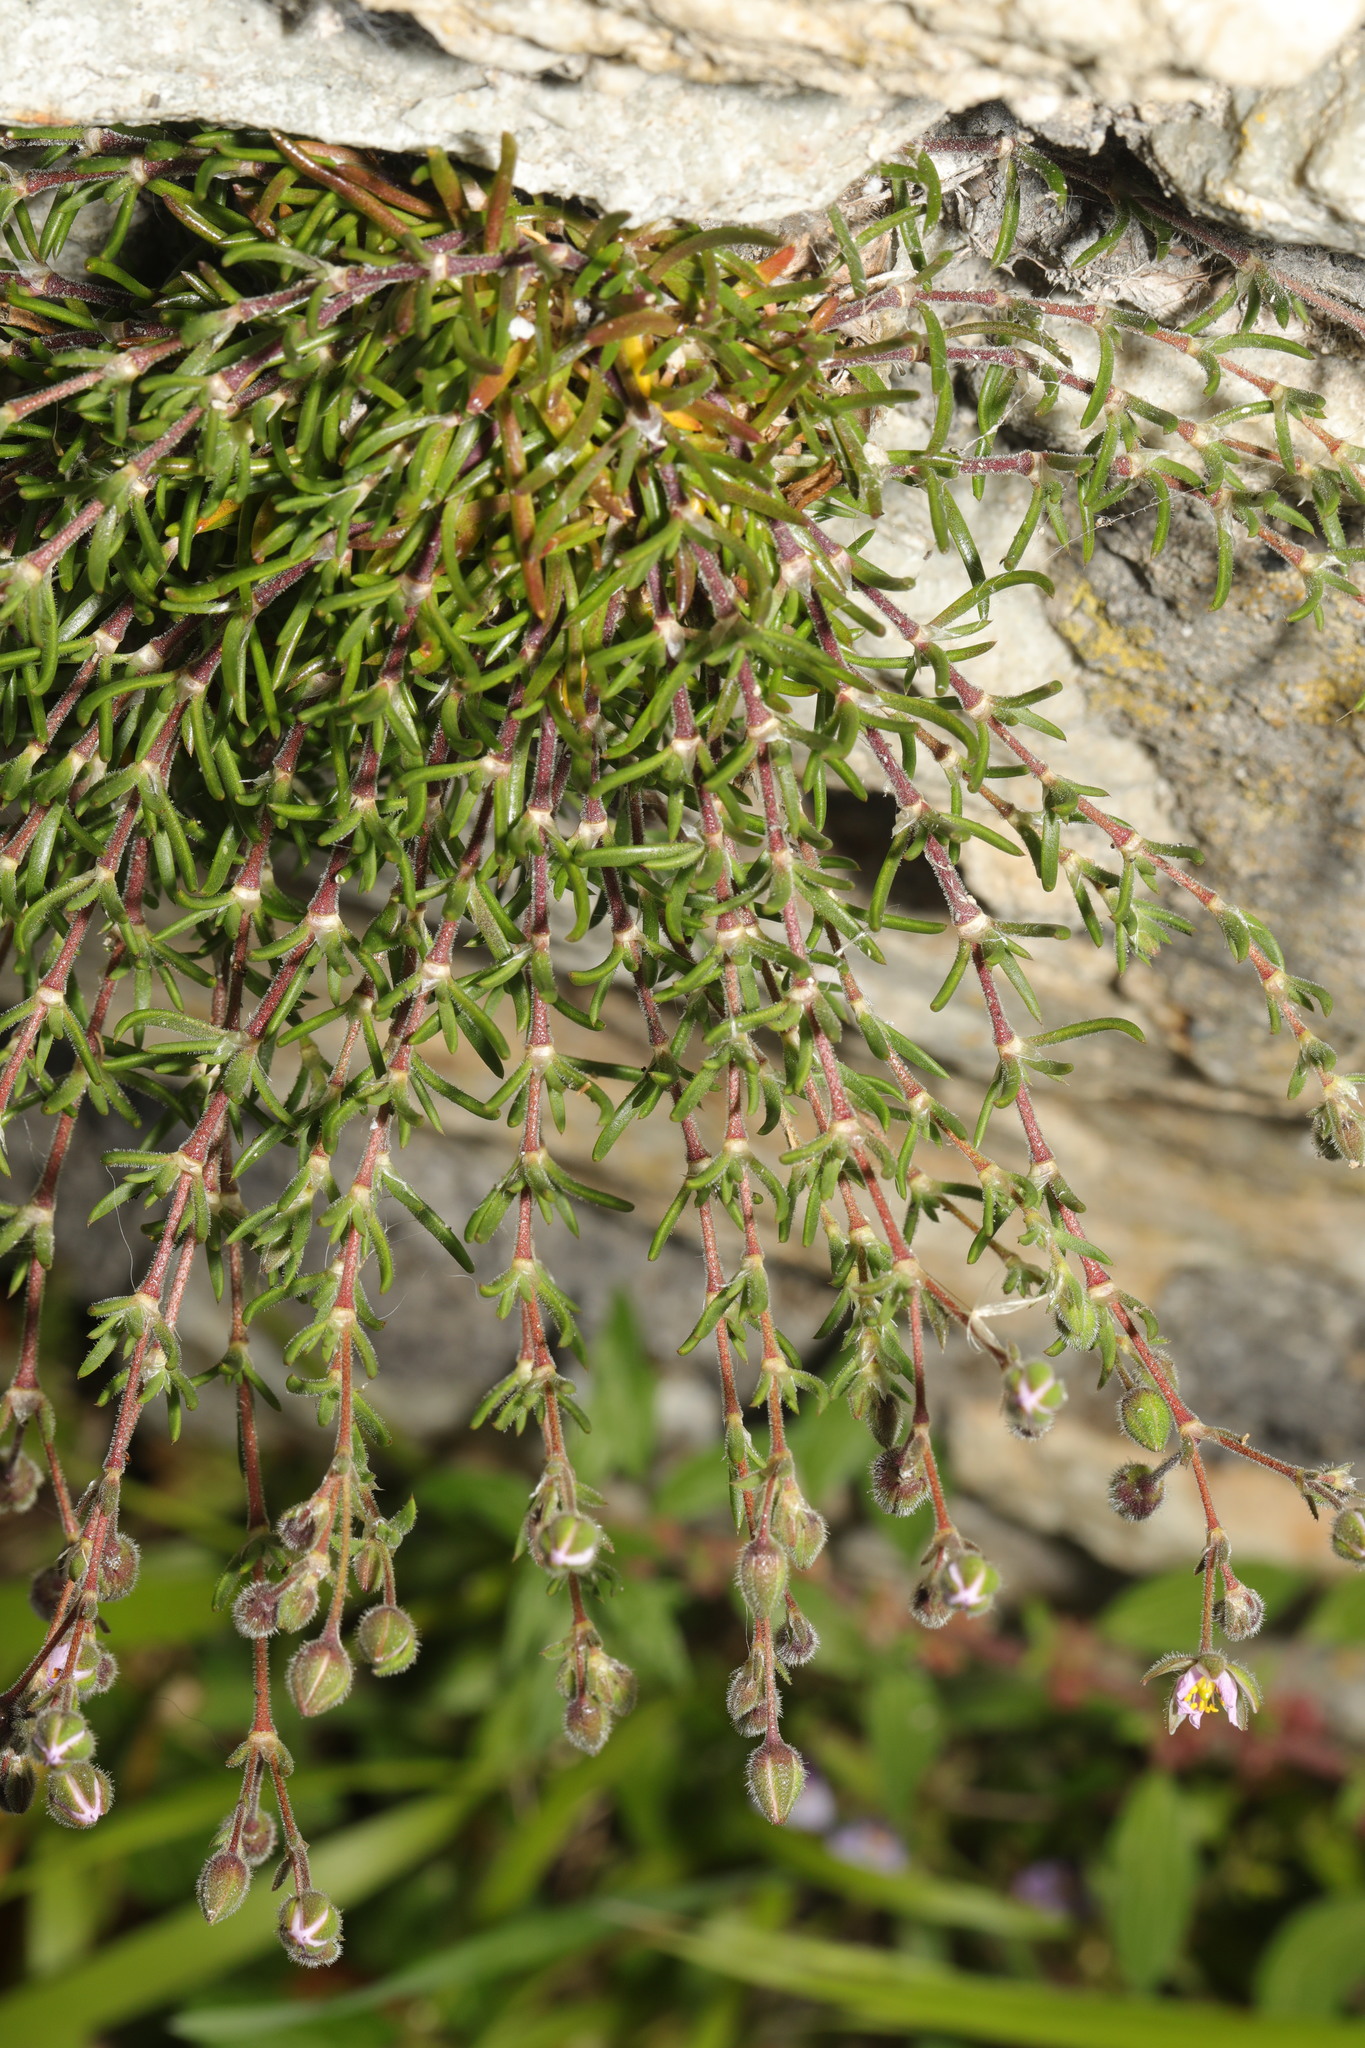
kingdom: Plantae
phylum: Tracheophyta
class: Magnoliopsida
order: Caryophyllales
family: Caryophyllaceae
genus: Spergularia
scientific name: Spergularia rupicola
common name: Cliff sand-spurrey
